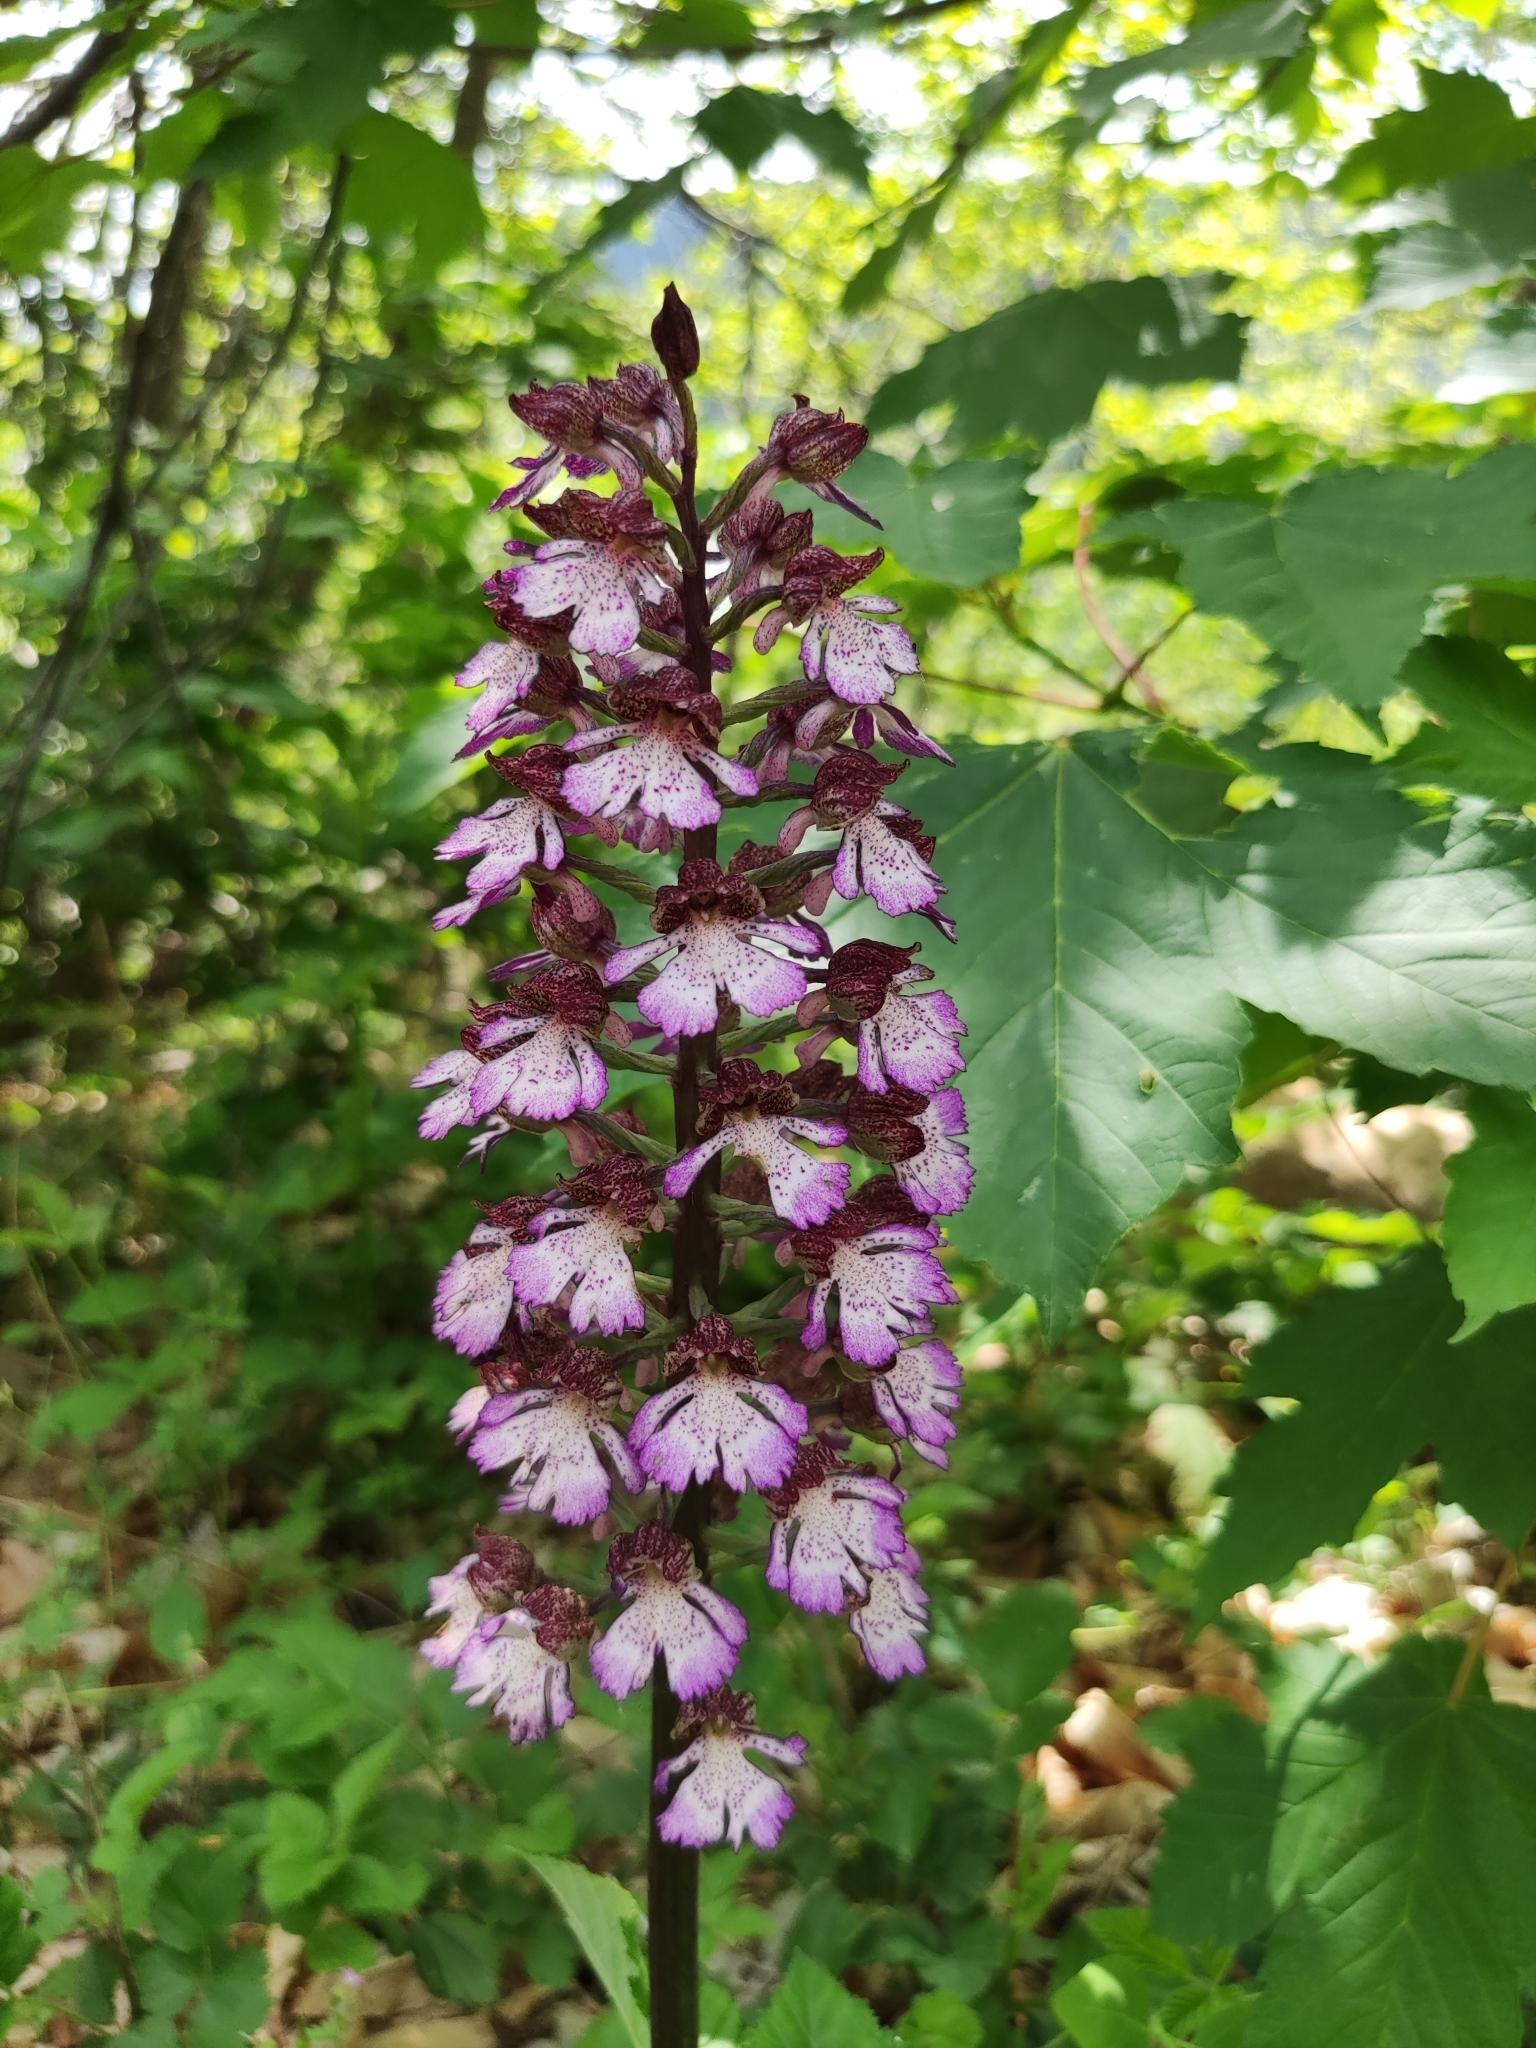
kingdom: Plantae
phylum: Tracheophyta
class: Liliopsida
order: Asparagales
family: Orchidaceae
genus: Orchis
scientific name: Orchis purpurea
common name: Lady orchid
